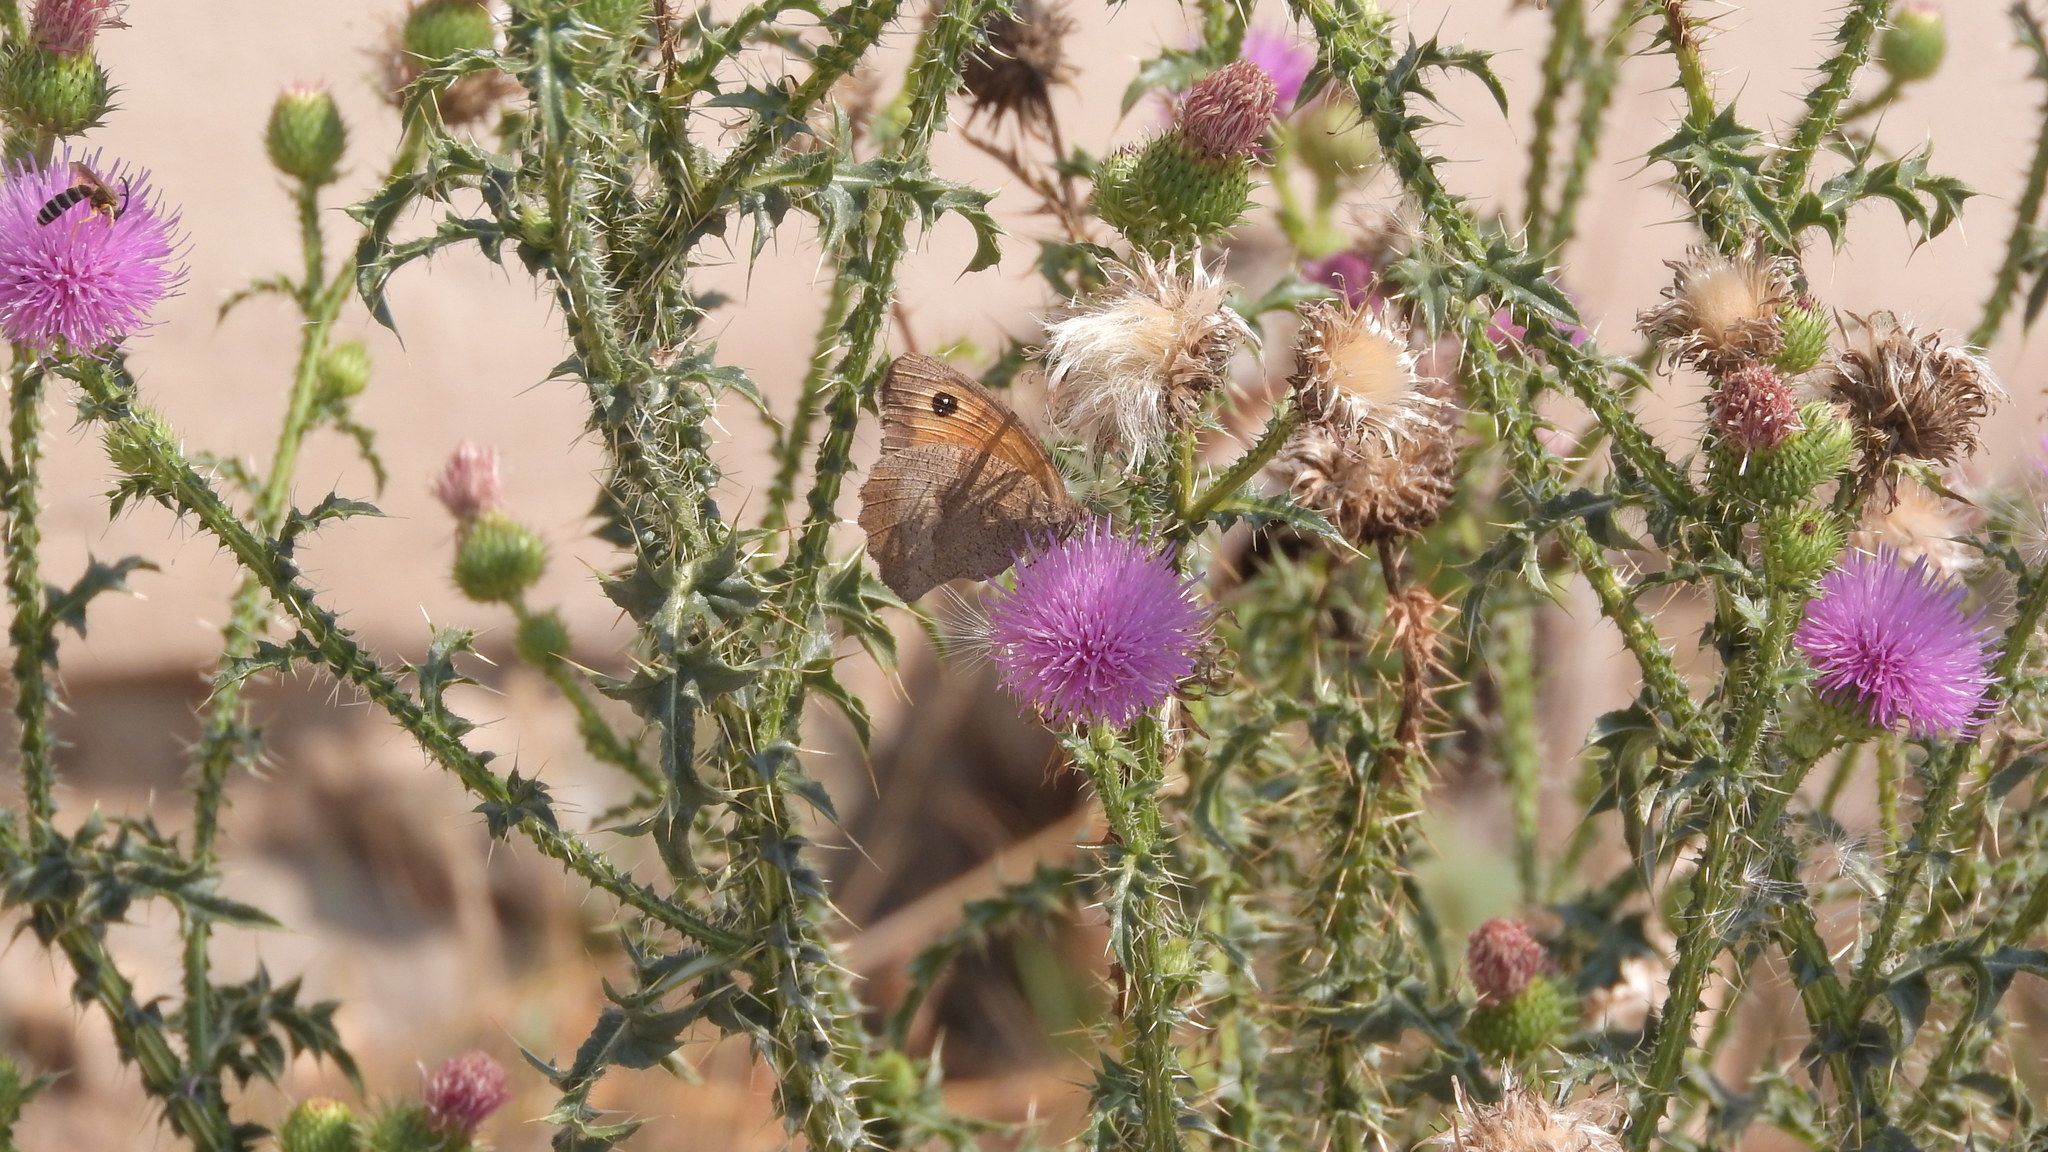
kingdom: Animalia
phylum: Arthropoda
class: Insecta
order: Lepidoptera
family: Nymphalidae
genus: Maniola
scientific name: Maniola jurtina
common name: Meadow brown
